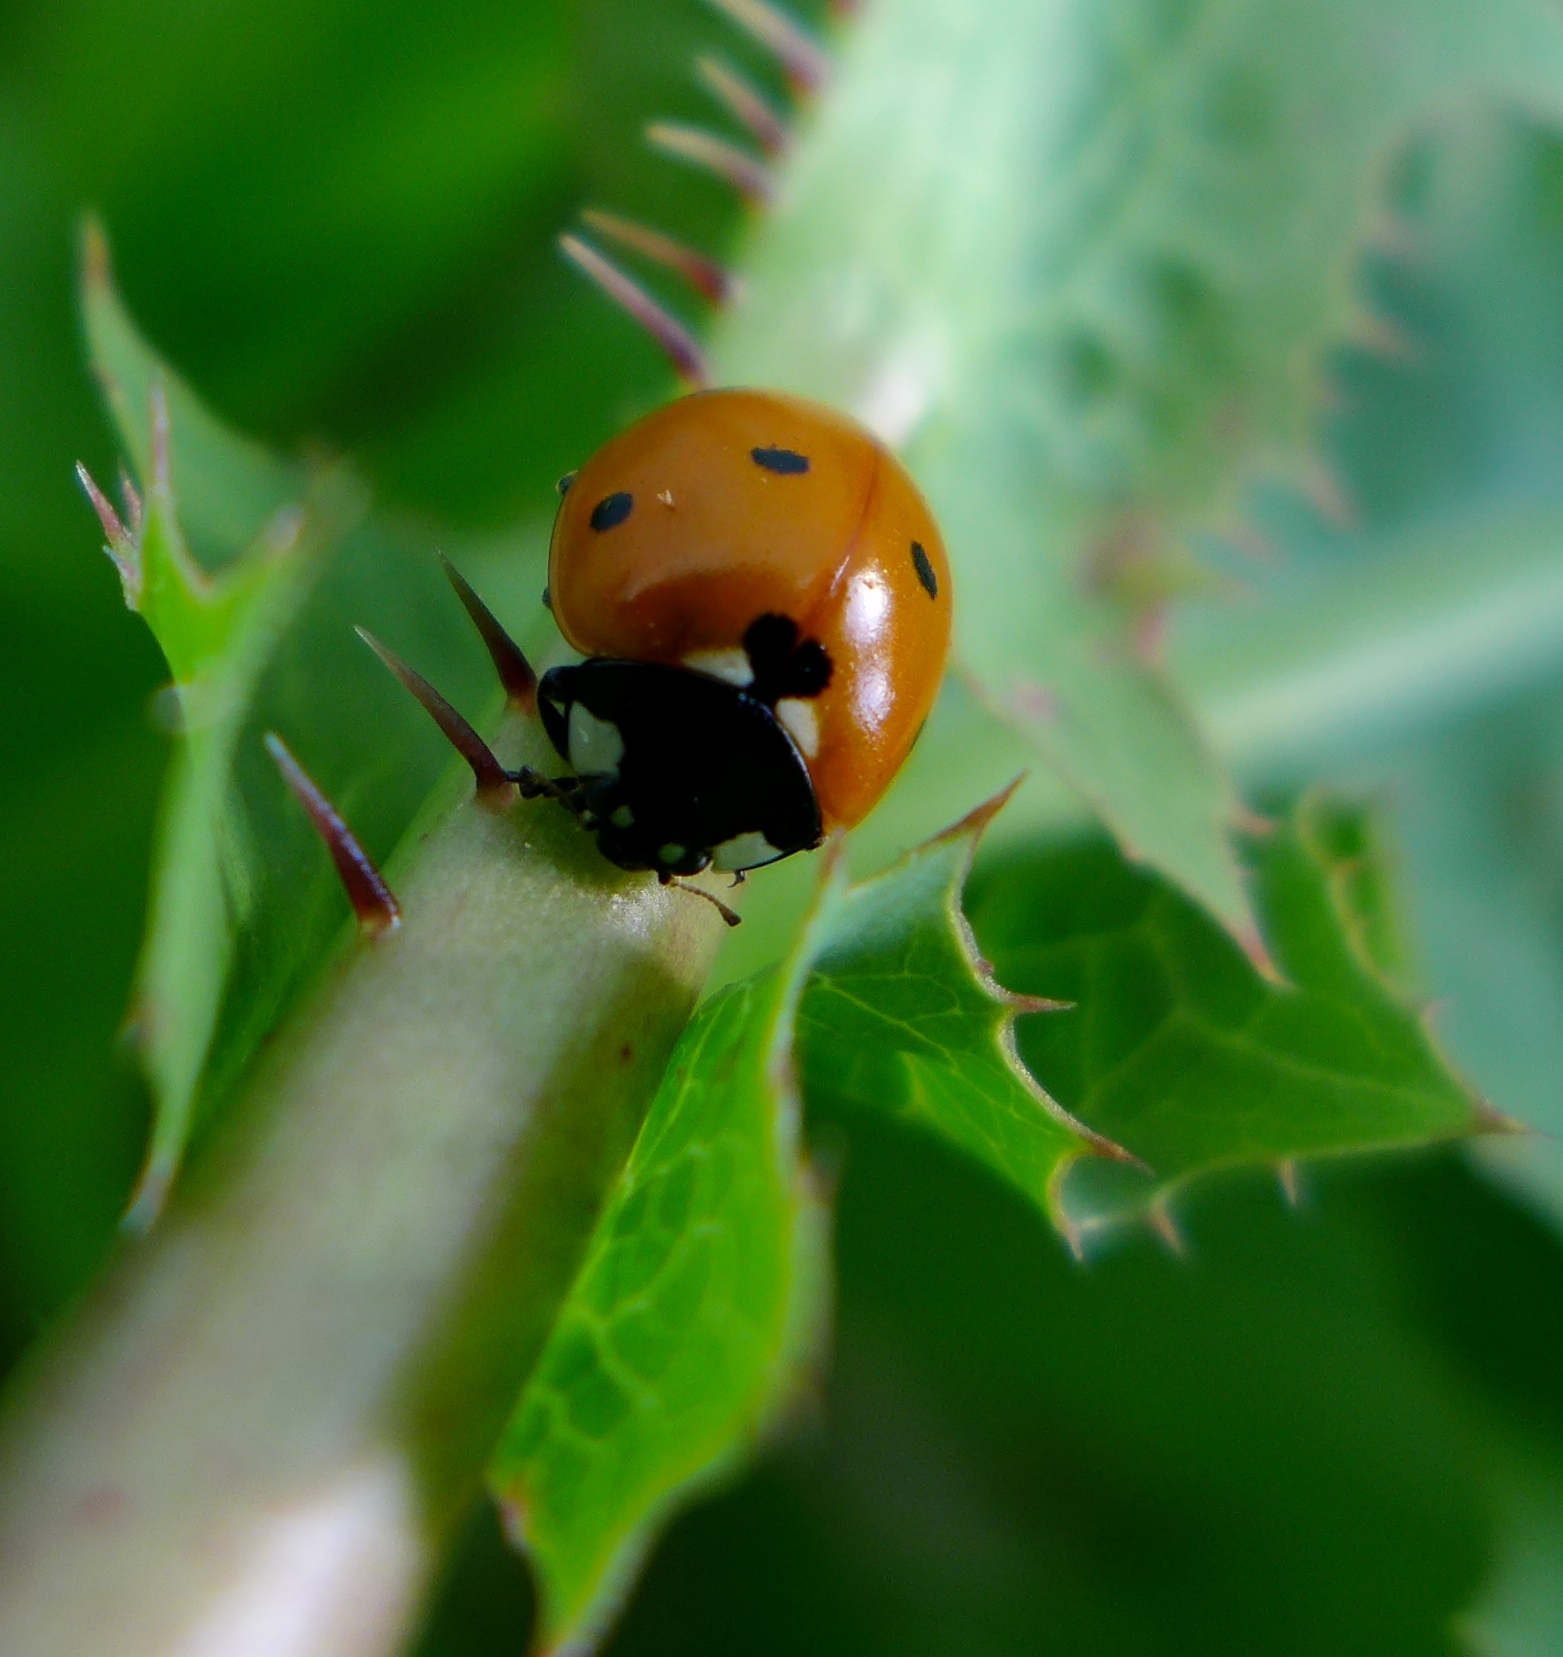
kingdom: Animalia
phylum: Arthropoda
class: Insecta
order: Coleoptera
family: Coccinellidae
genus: Coccinella
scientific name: Coccinella septempunctata
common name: Sevenspotted lady beetle
